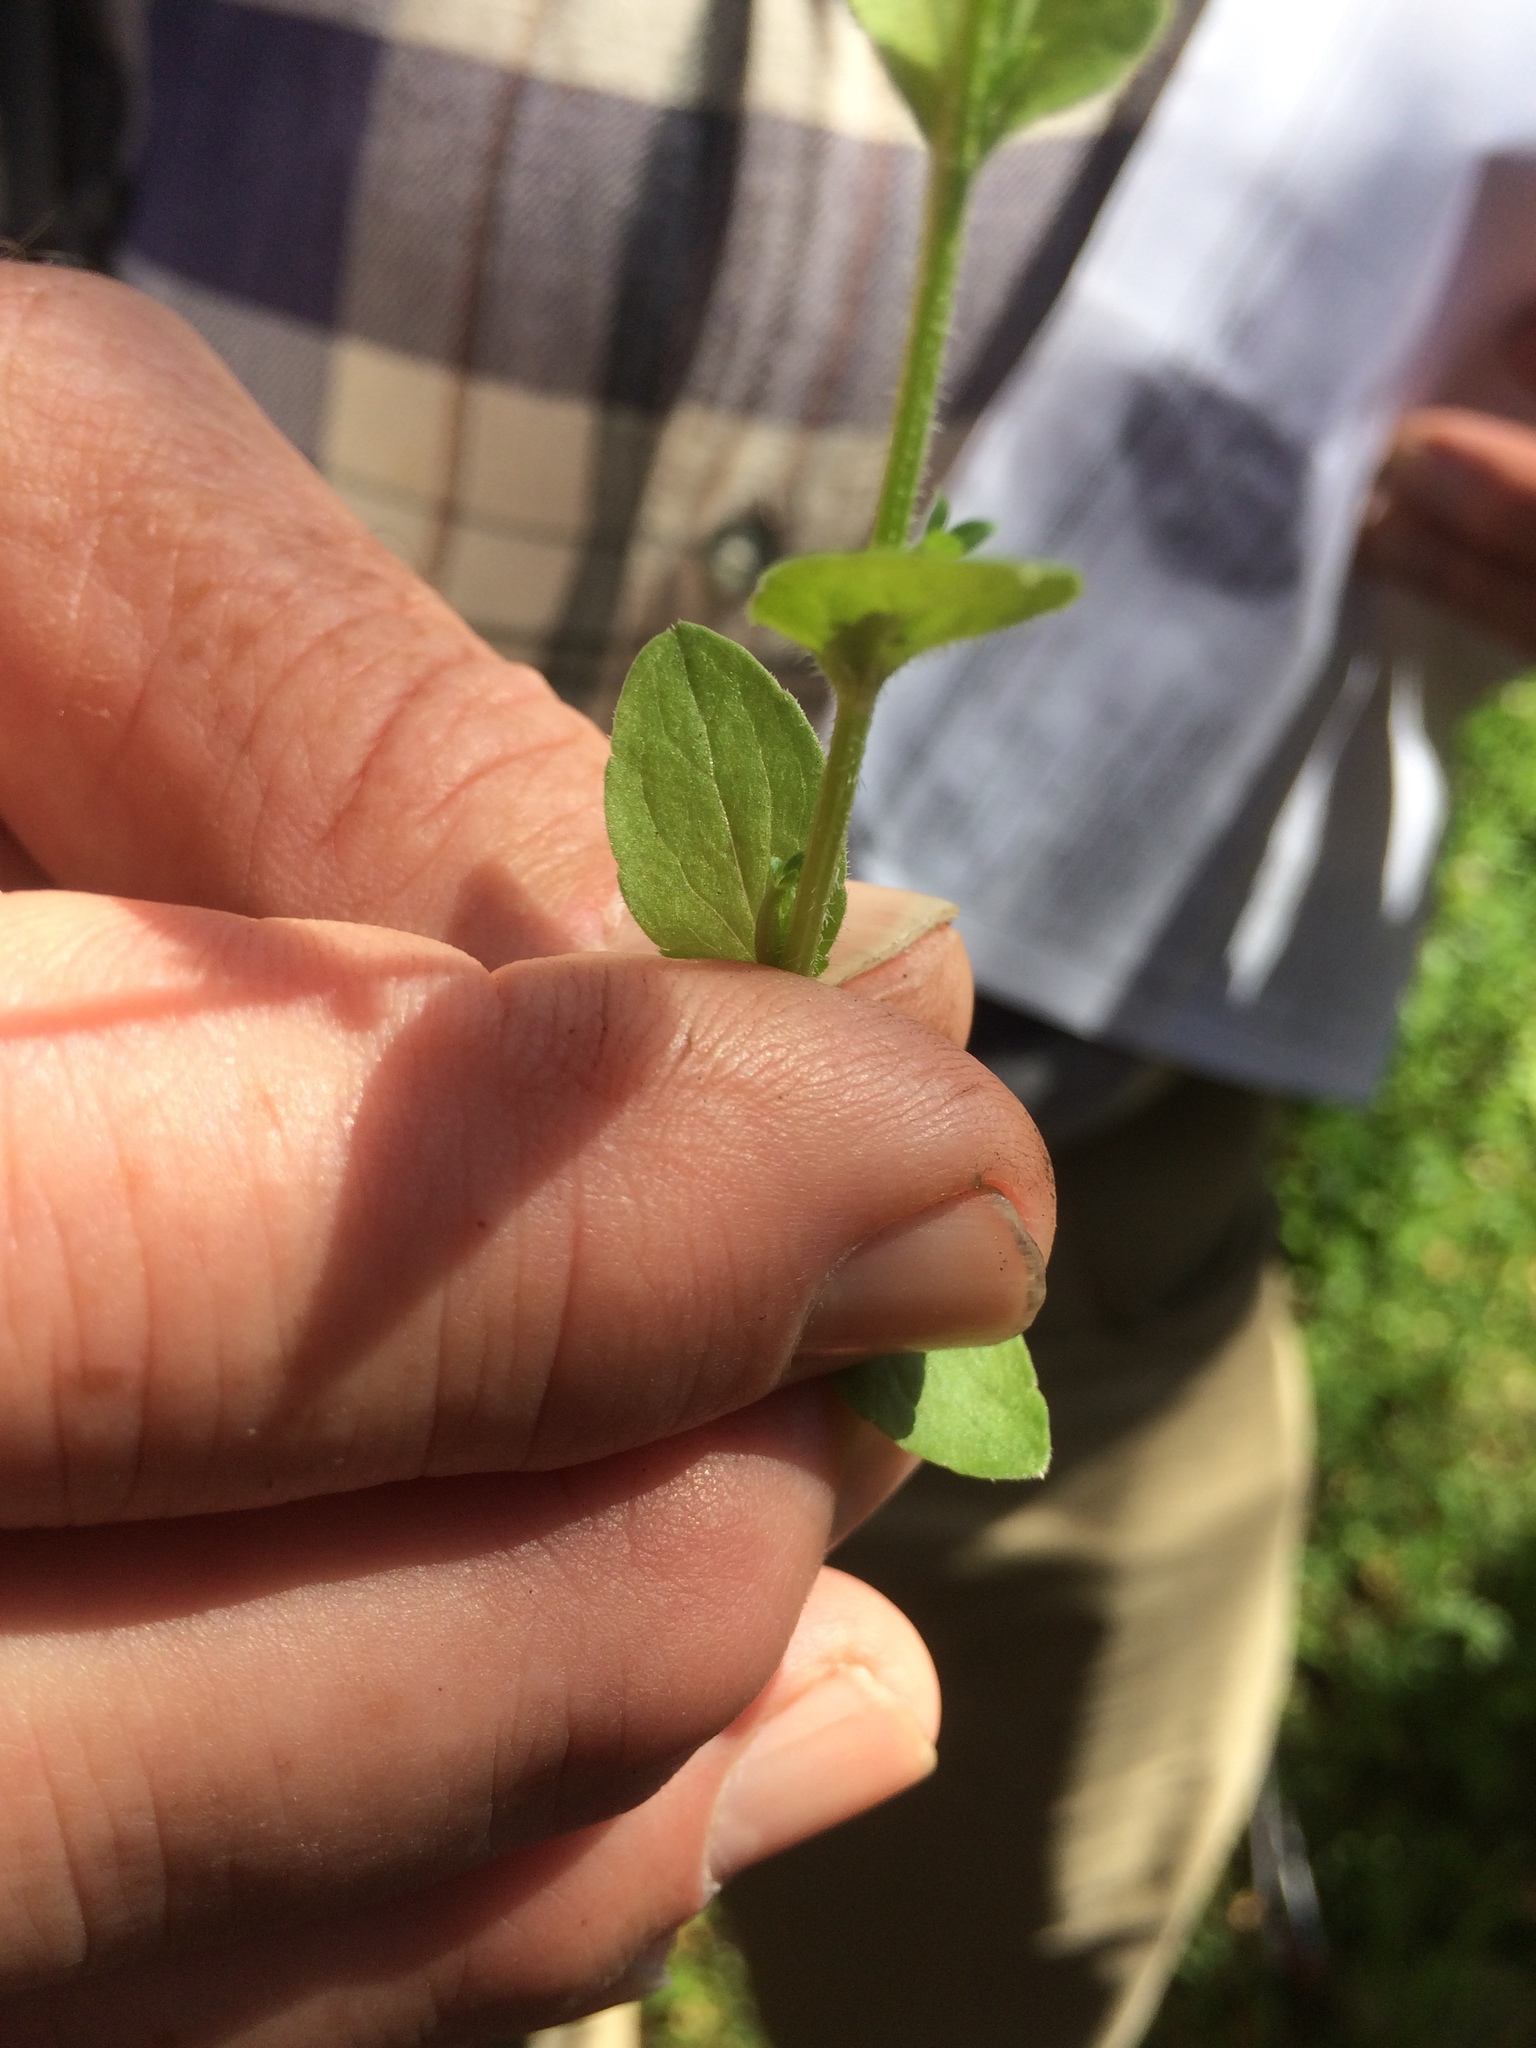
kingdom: Plantae
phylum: Tracheophyta
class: Magnoliopsida
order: Asterales
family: Campanulaceae
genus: Triodanis
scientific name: Triodanis biflora
